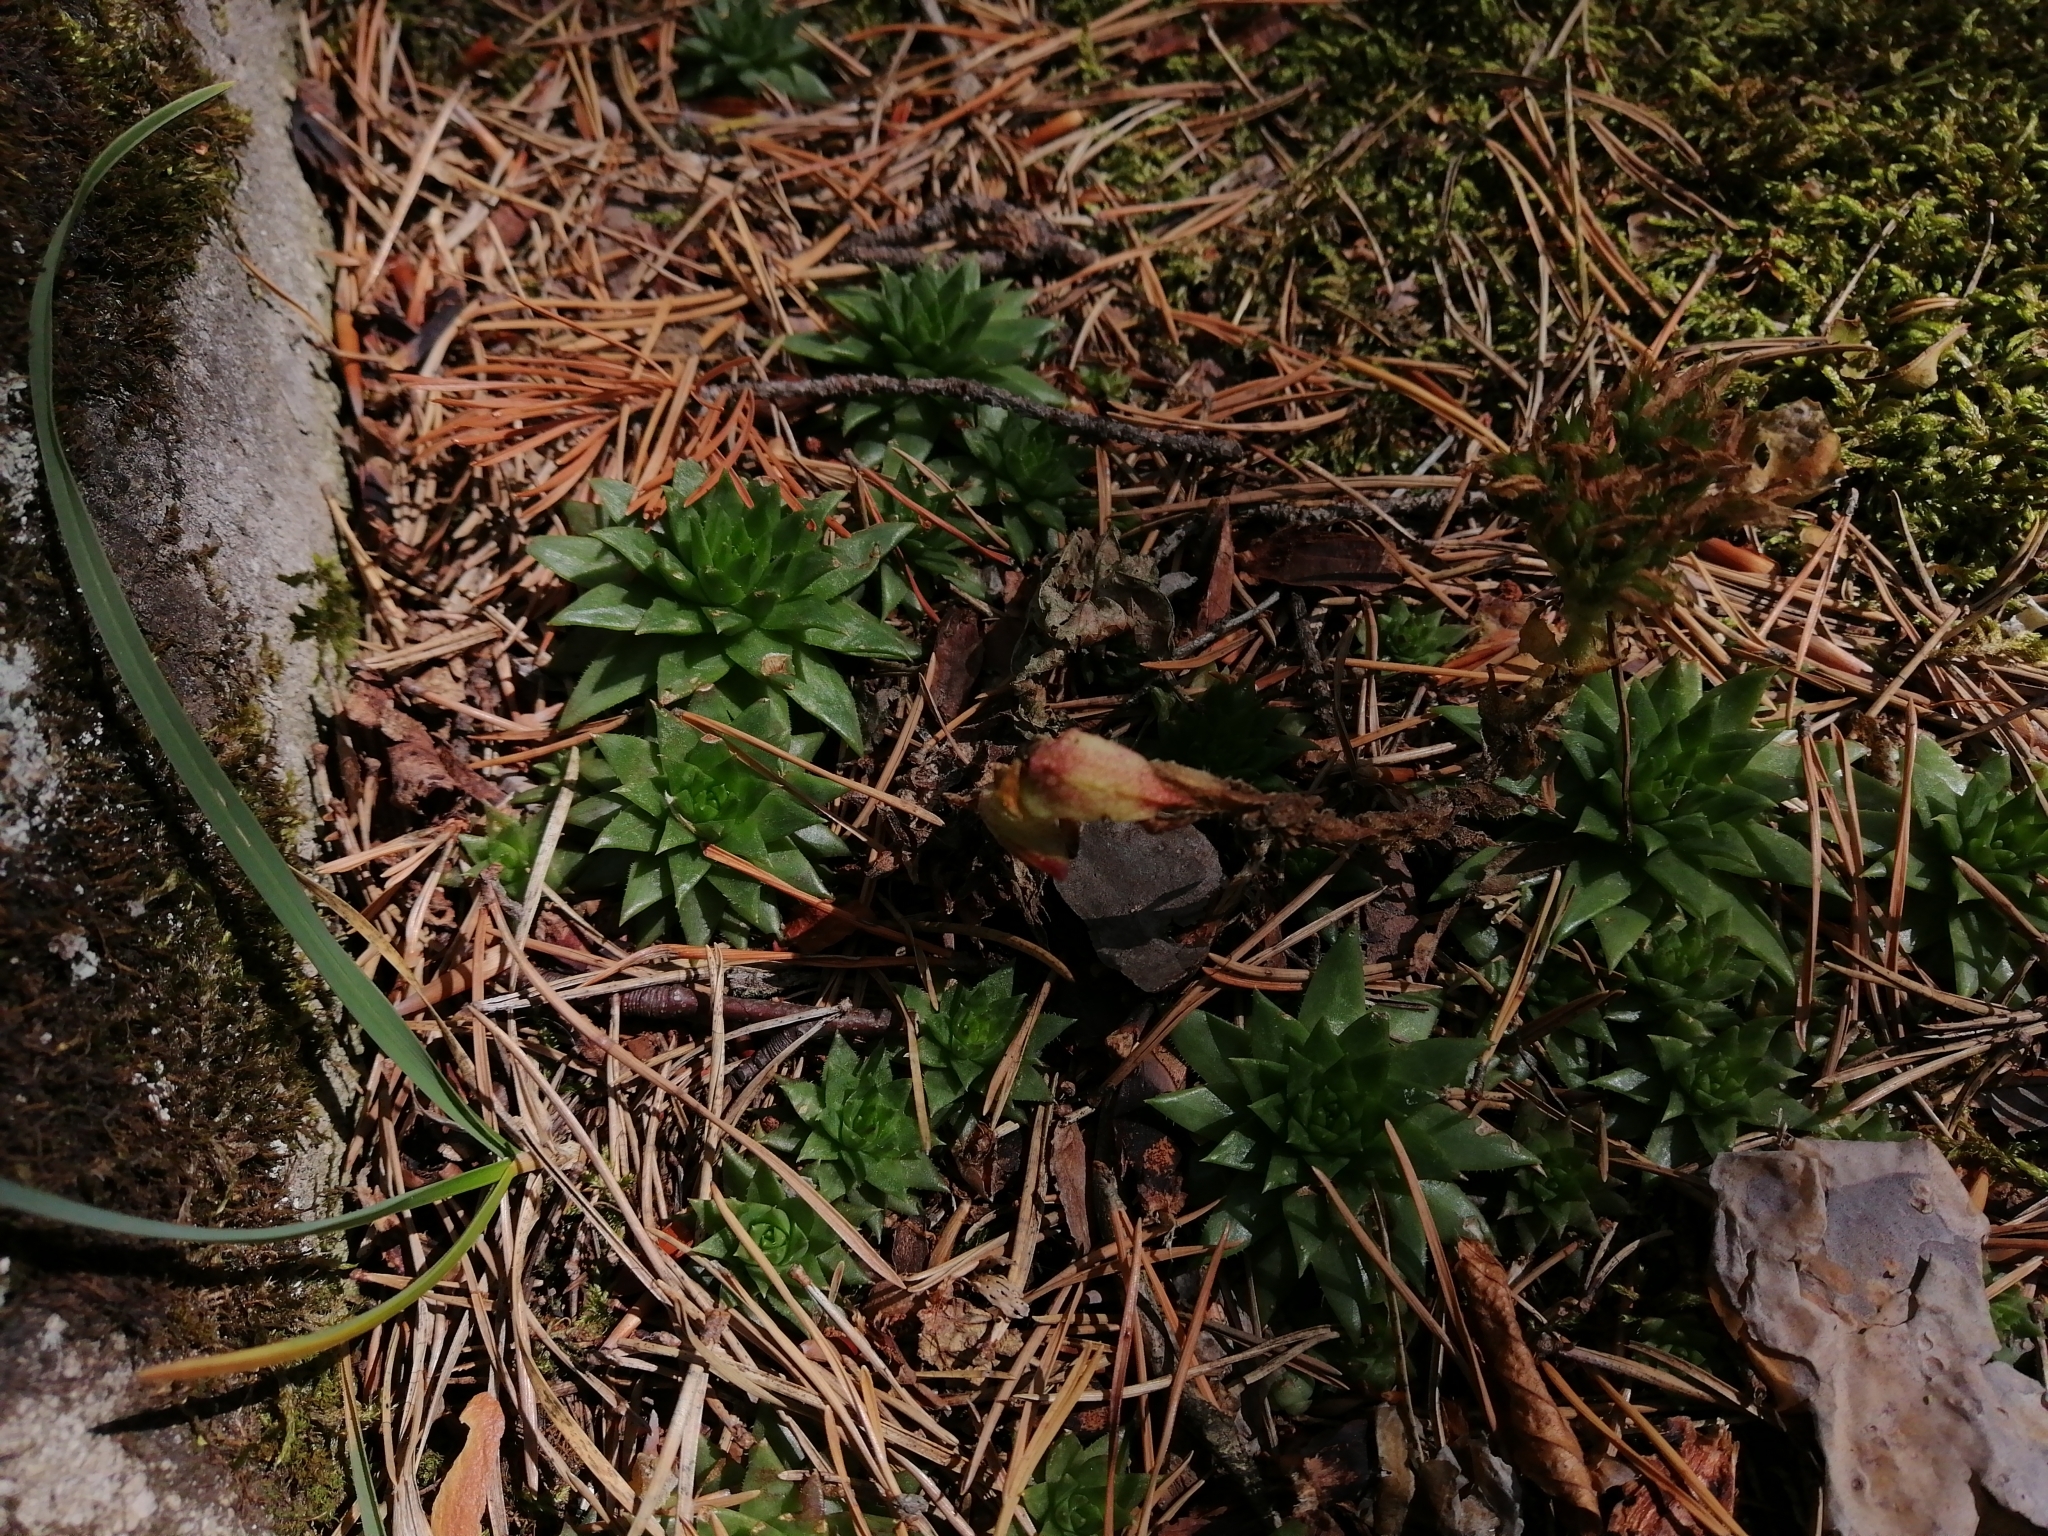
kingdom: Plantae
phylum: Tracheophyta
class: Magnoliopsida
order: Saxifragales
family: Crassulaceae
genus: Sempervivum
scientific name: Sempervivum globiferum
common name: Rolling hen-and-chicks
